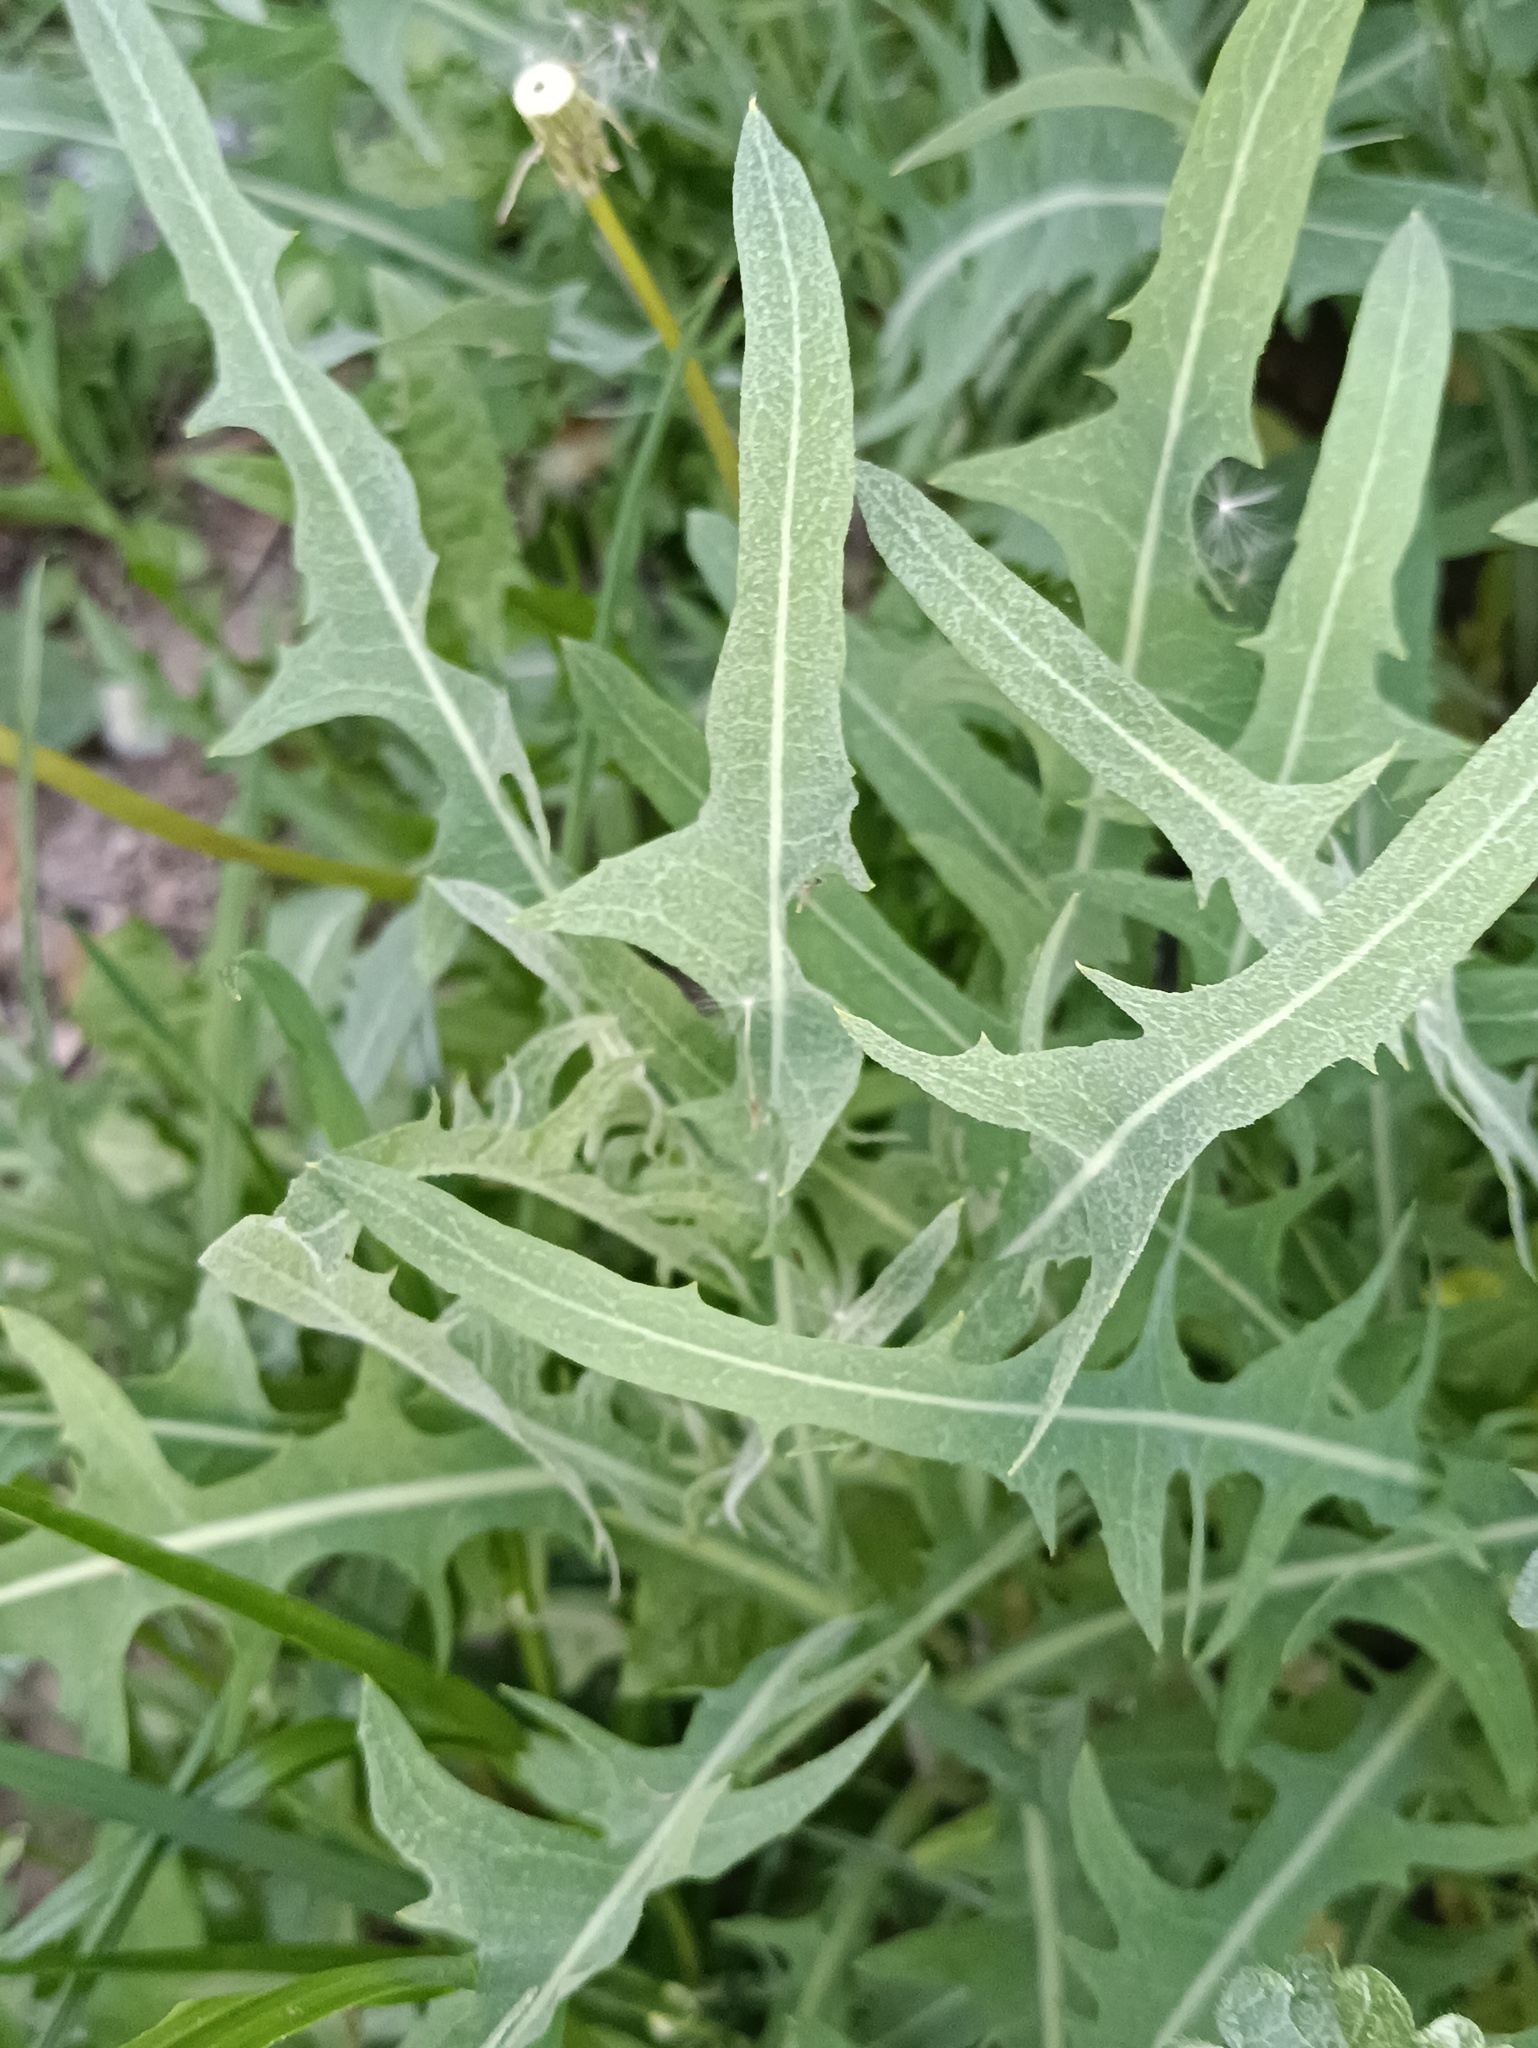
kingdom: Plantae
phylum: Tracheophyta
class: Magnoliopsida
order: Asterales
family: Asteraceae
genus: Lactuca
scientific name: Lactuca tatarica
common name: Blue lettuce
